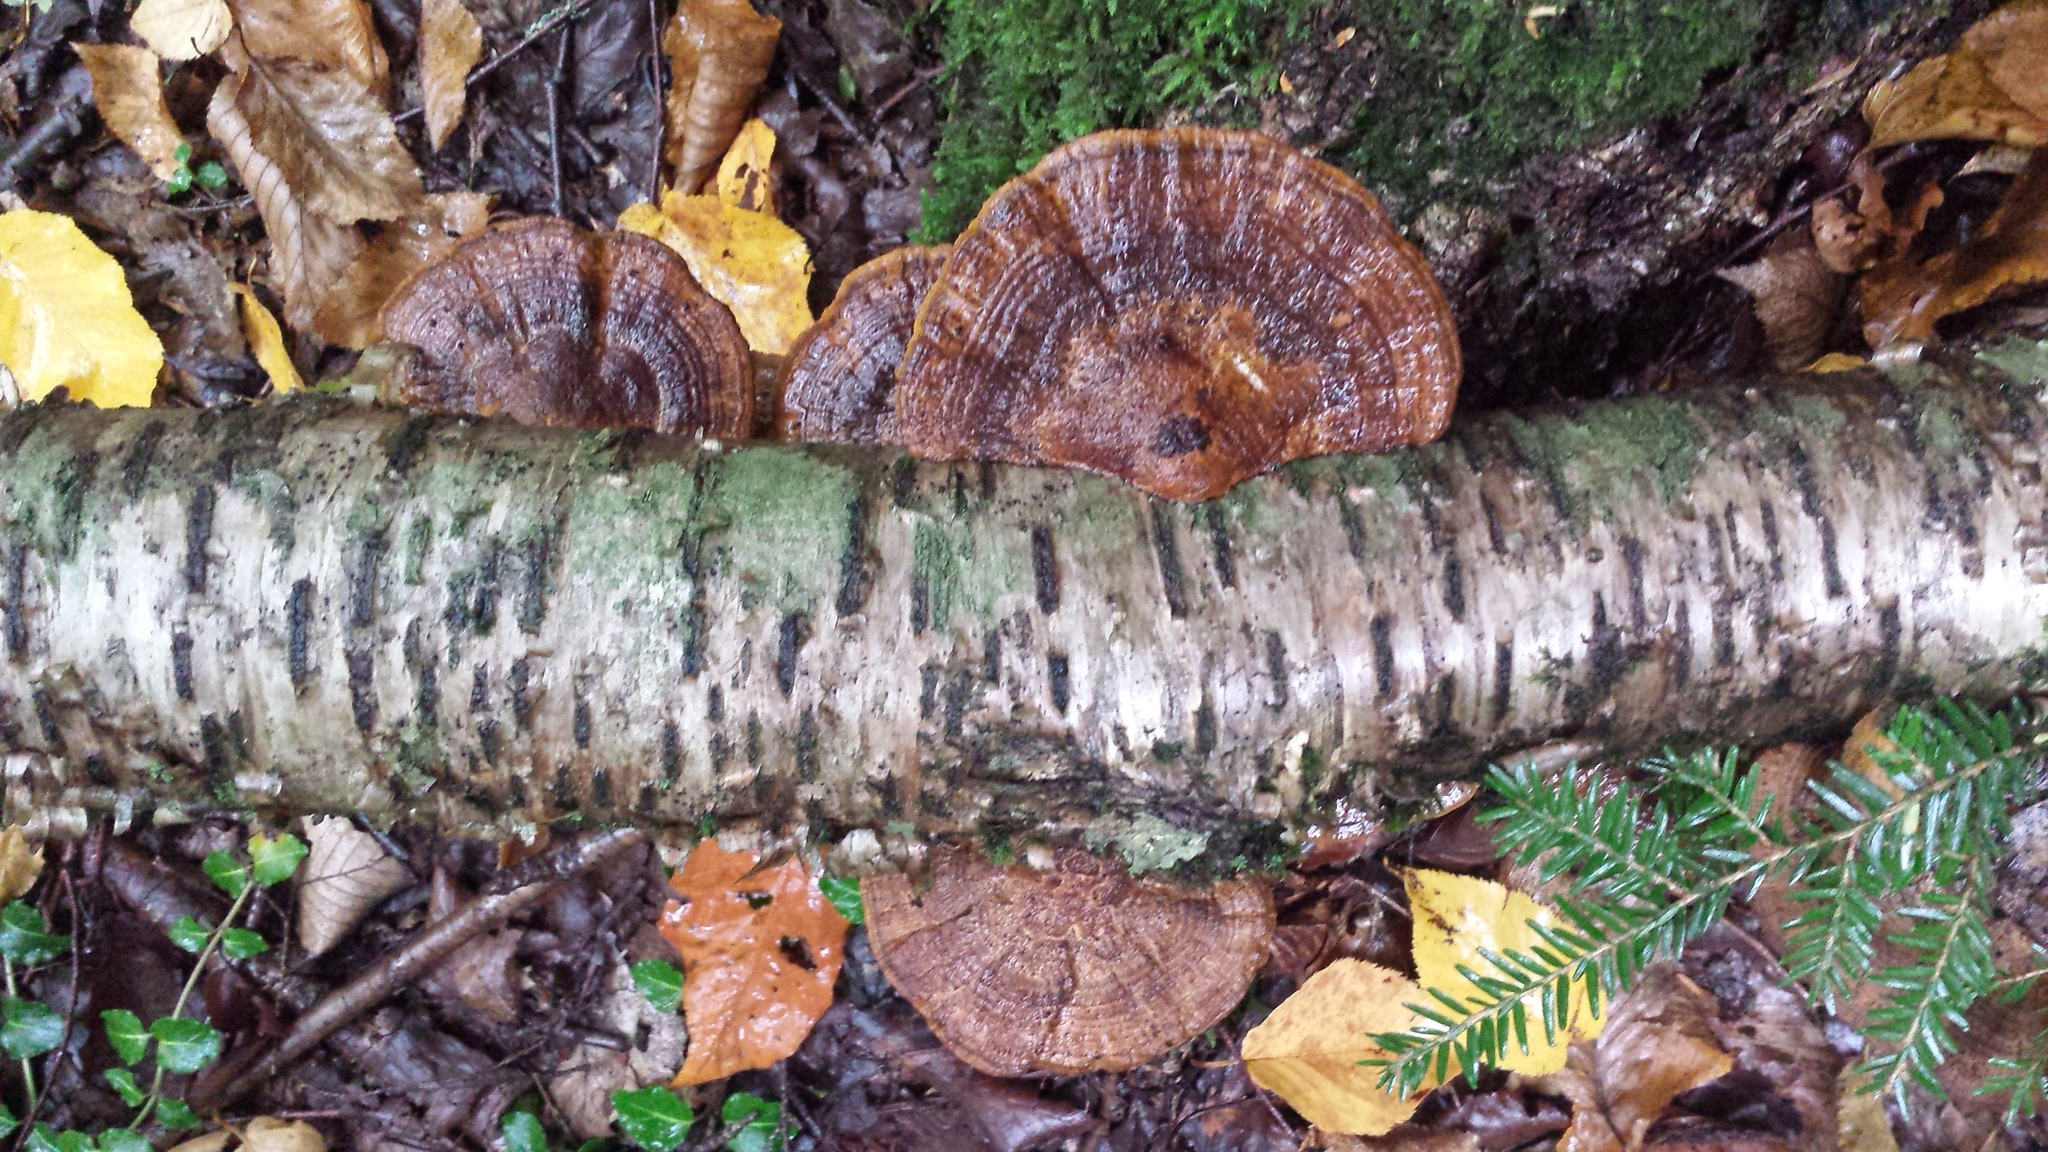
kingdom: Fungi
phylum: Basidiomycota
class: Agaricomycetes
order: Polyporales
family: Polyporaceae
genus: Daedaleopsis
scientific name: Daedaleopsis confragosa
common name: Blushing bracket
